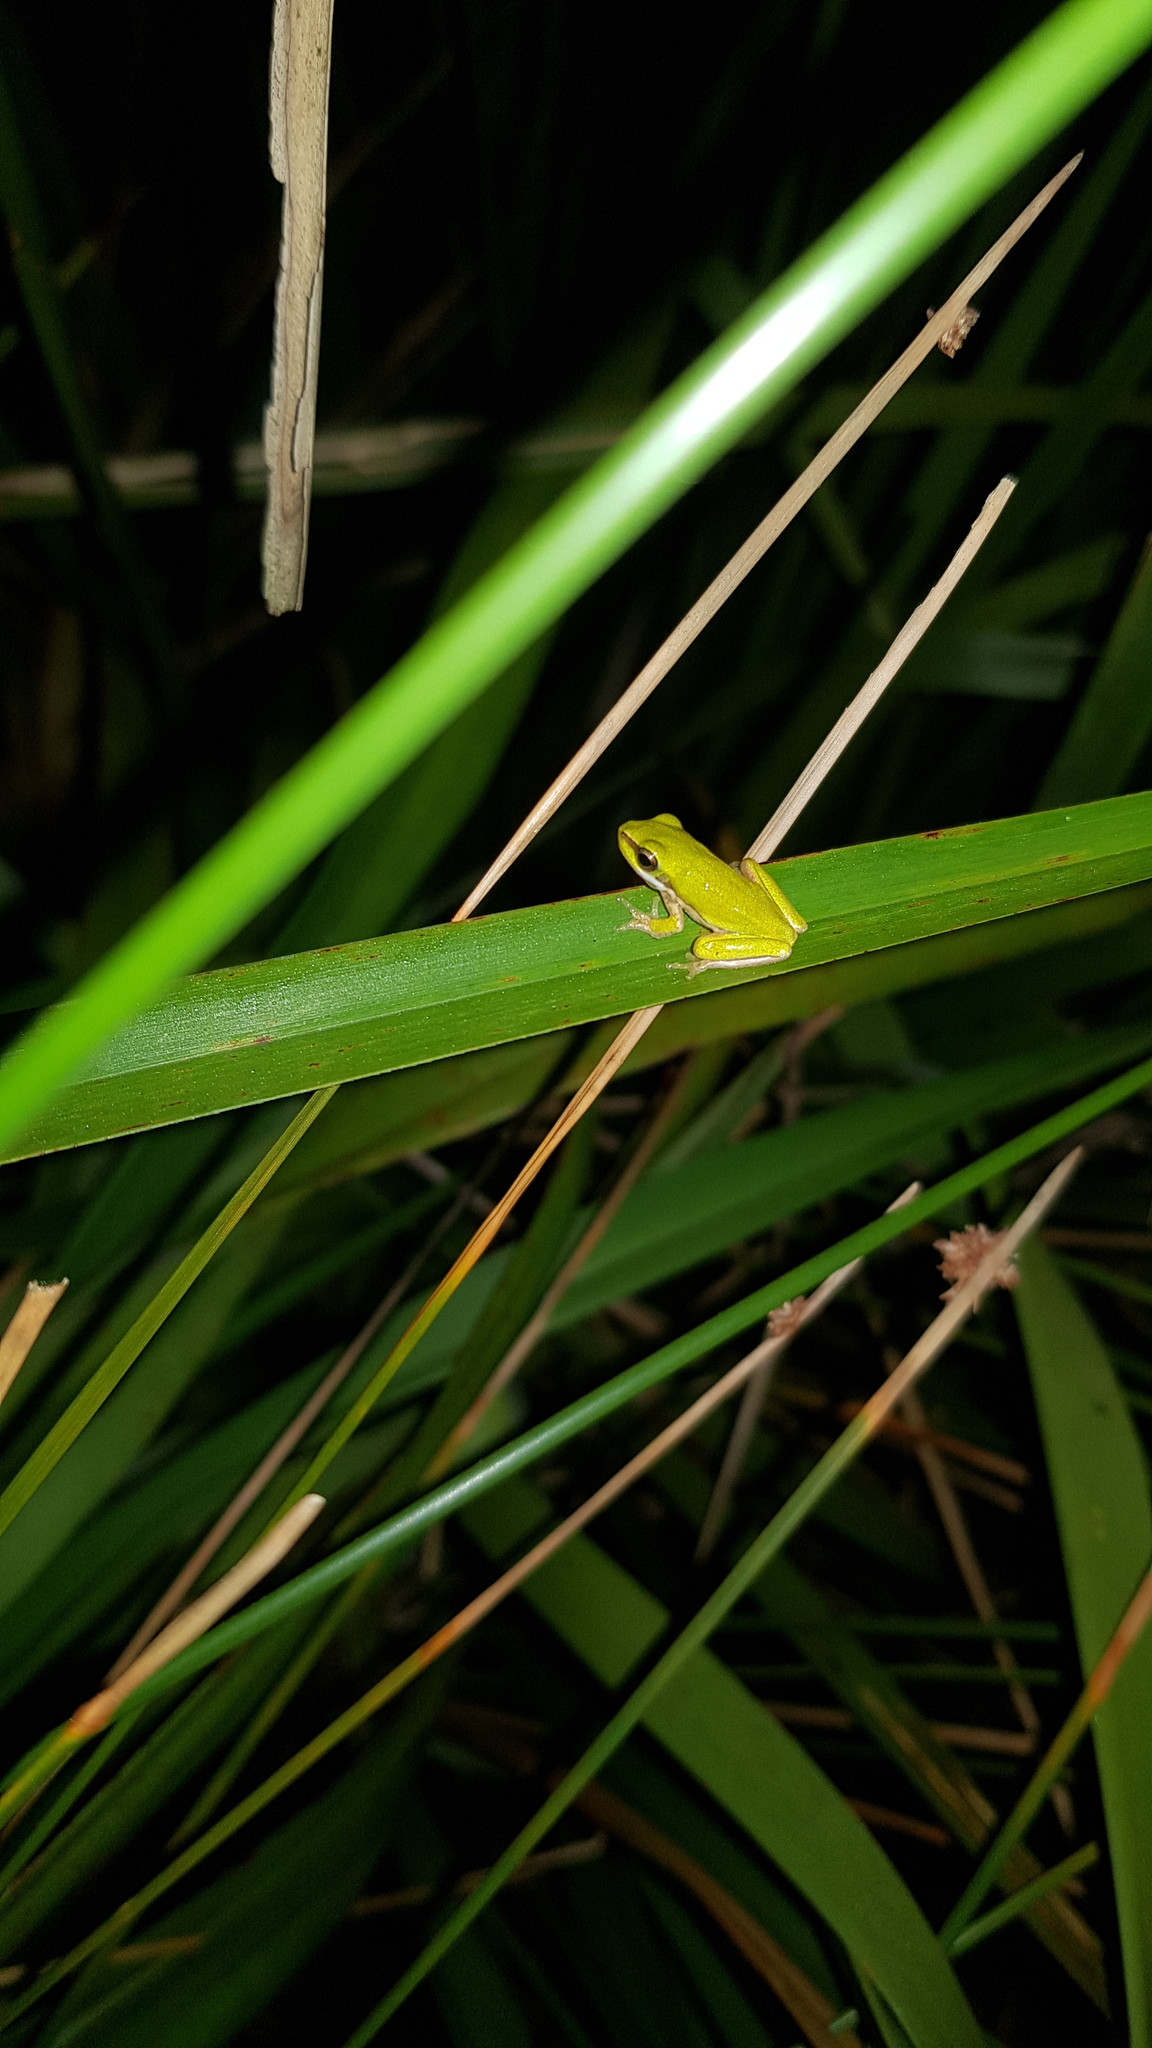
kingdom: Animalia
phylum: Chordata
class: Amphibia
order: Anura
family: Pelodryadidae
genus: Litoria
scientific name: Litoria fallax
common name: Eastern dwarf treefrog
